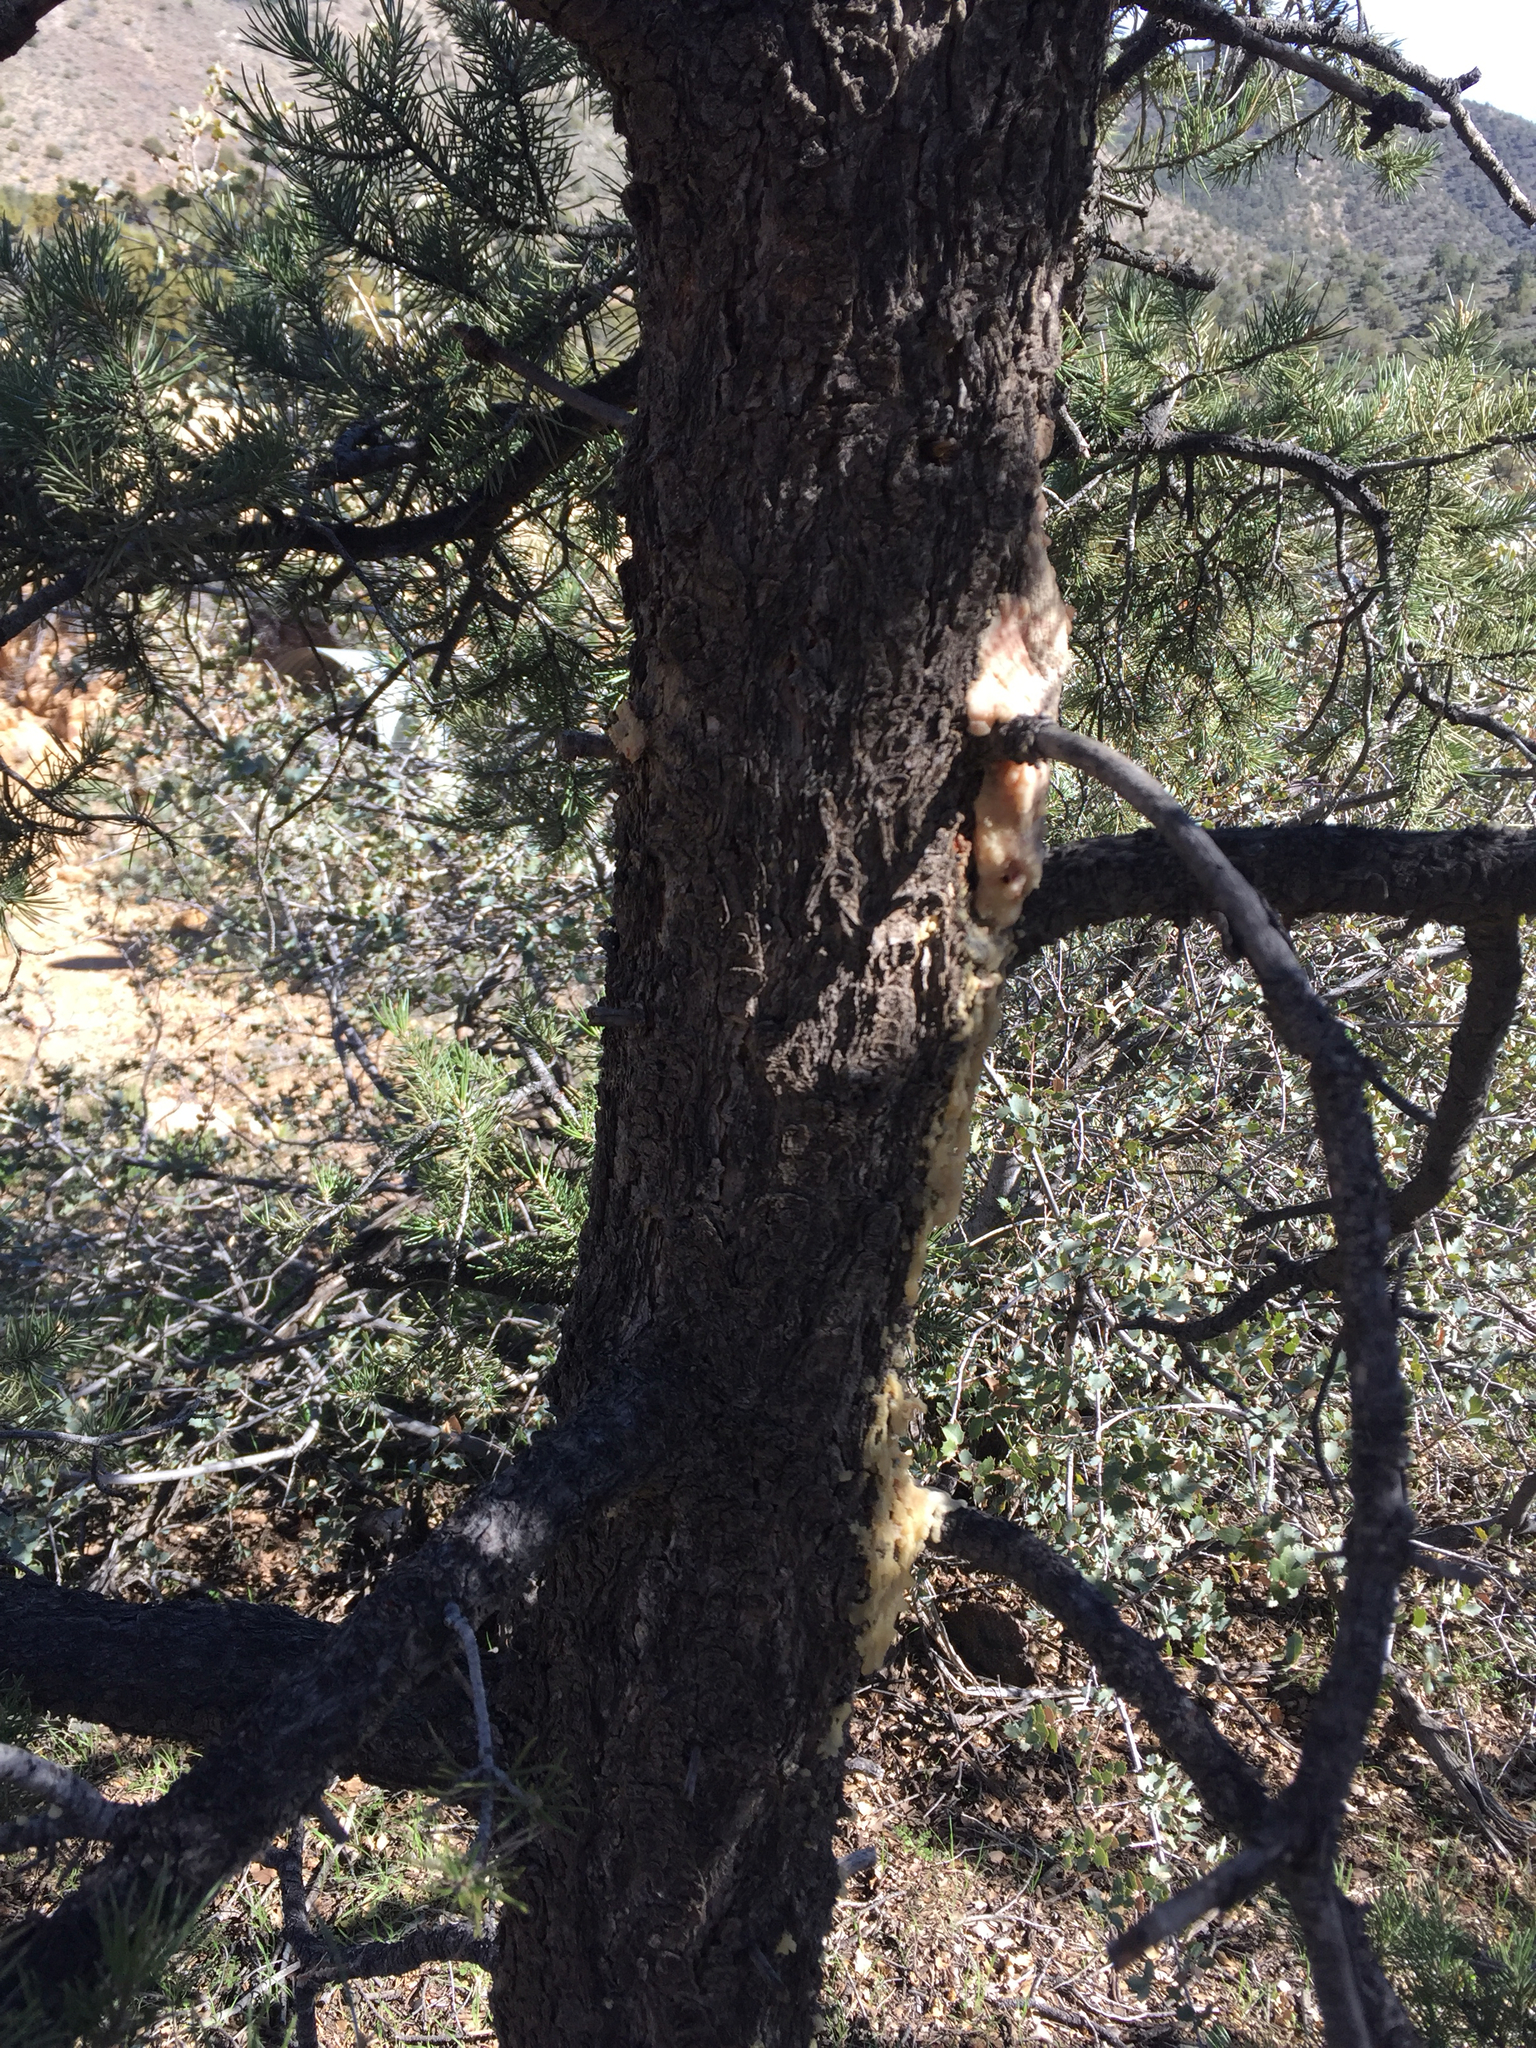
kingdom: Plantae
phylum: Tracheophyta
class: Pinopsida
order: Pinales
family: Pinaceae
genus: Pinus
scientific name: Pinus monophylla
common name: One-leaved nut pine
